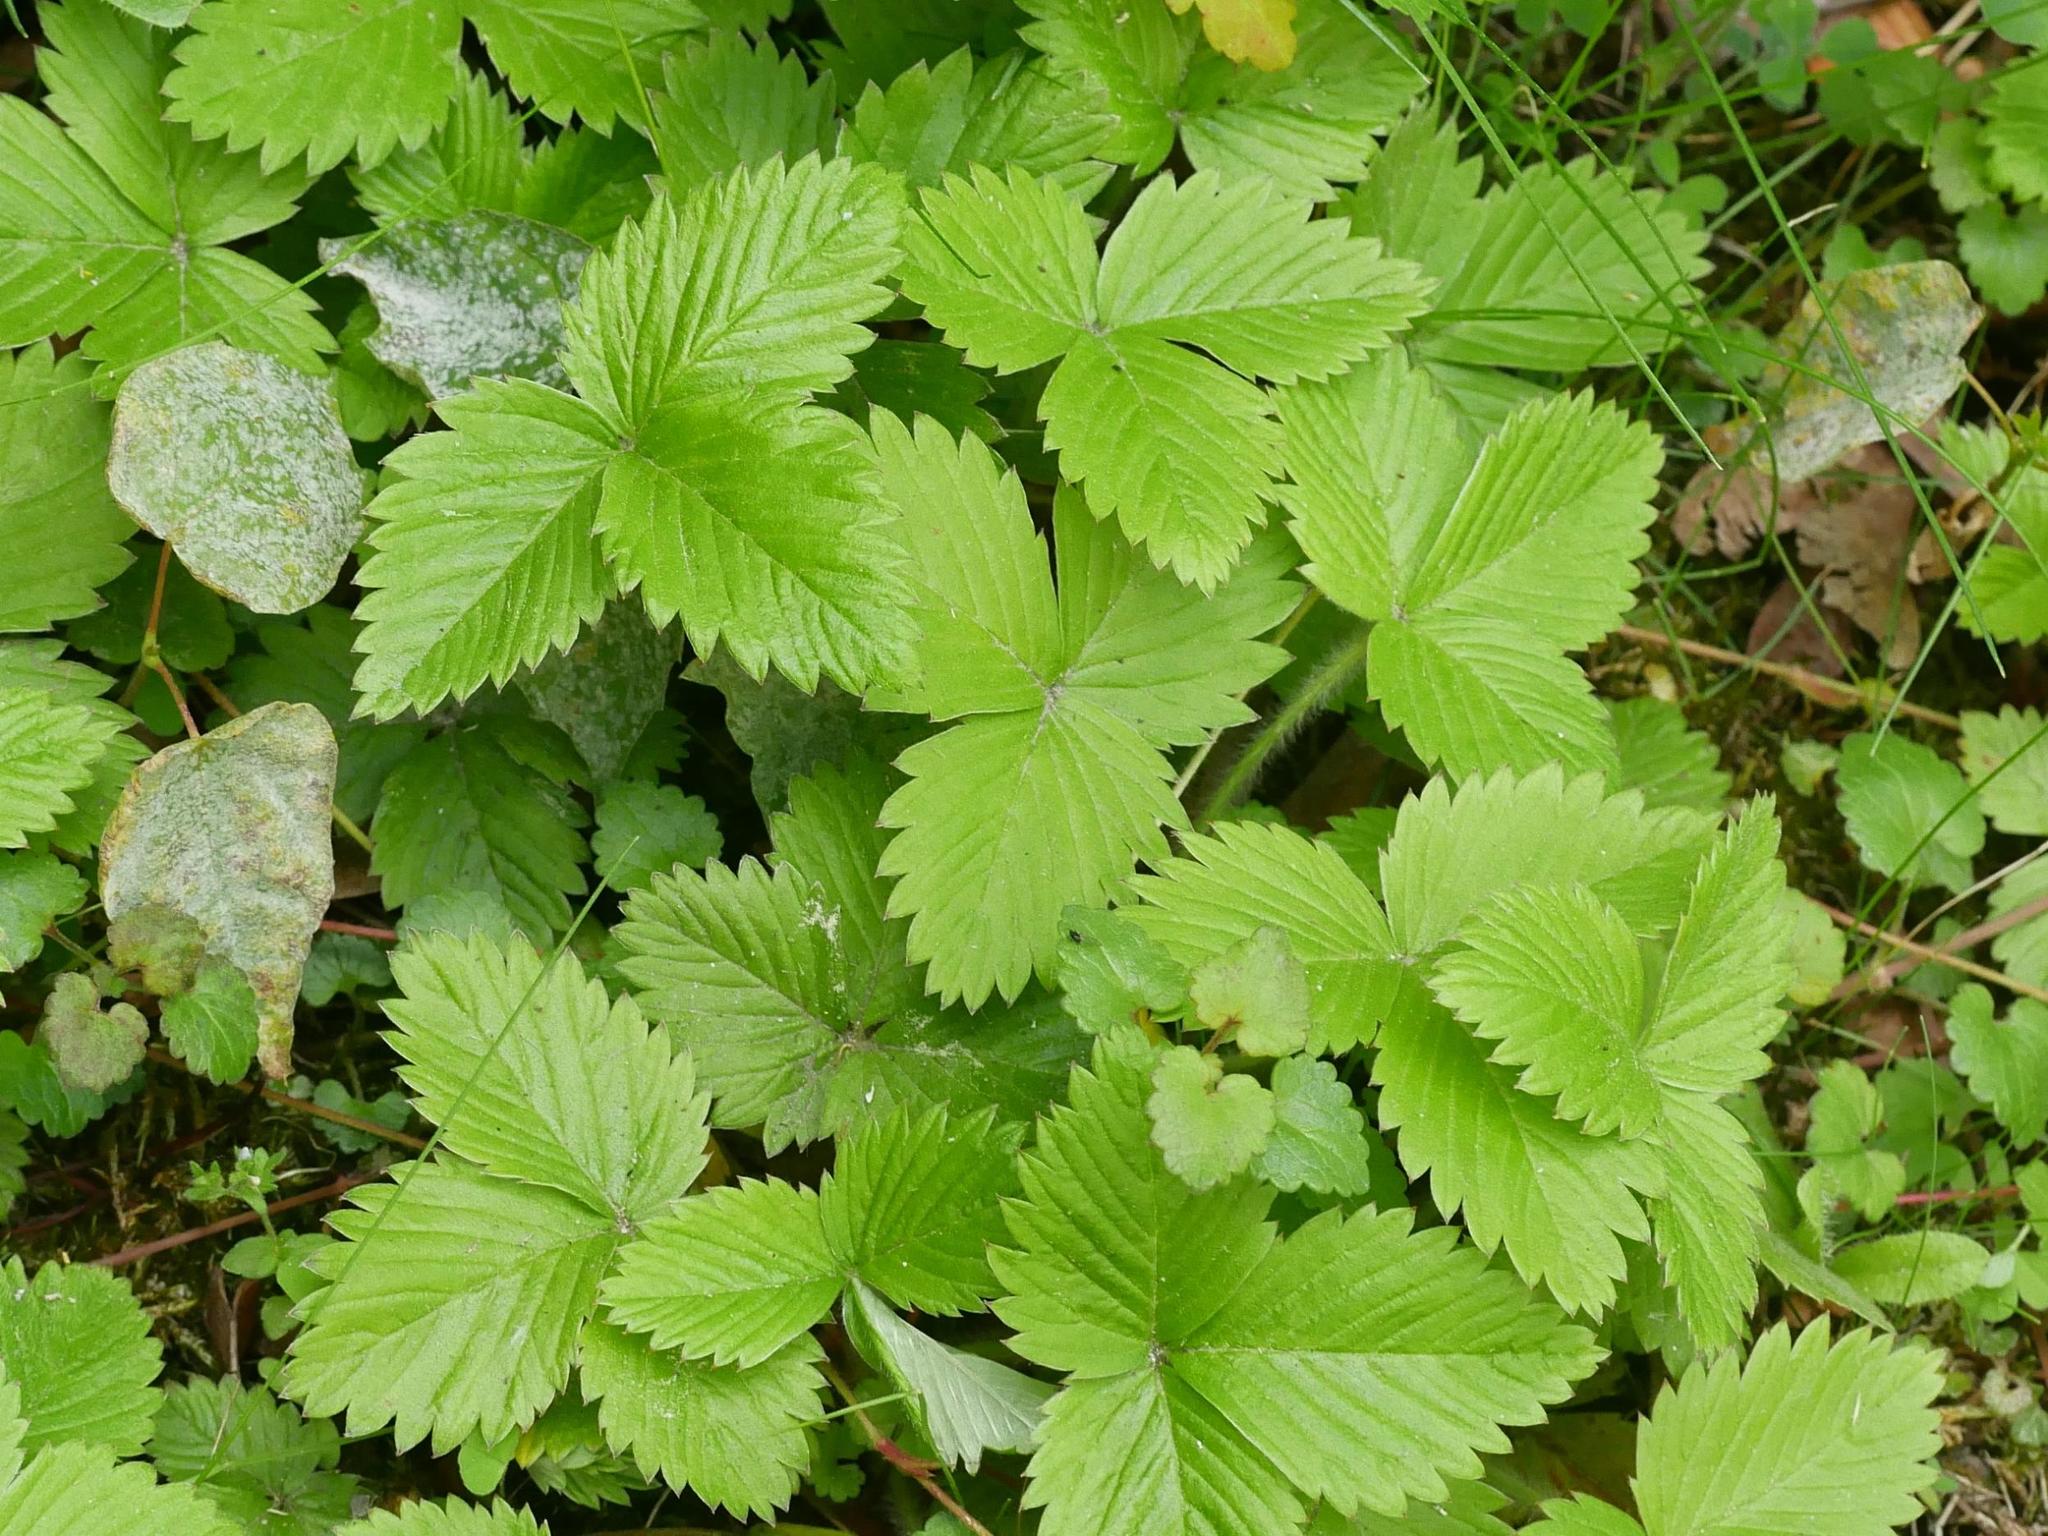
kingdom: Plantae
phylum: Tracheophyta
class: Magnoliopsida
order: Rosales
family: Rosaceae
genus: Fragaria
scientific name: Fragaria vesca
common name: Wild strawberry
